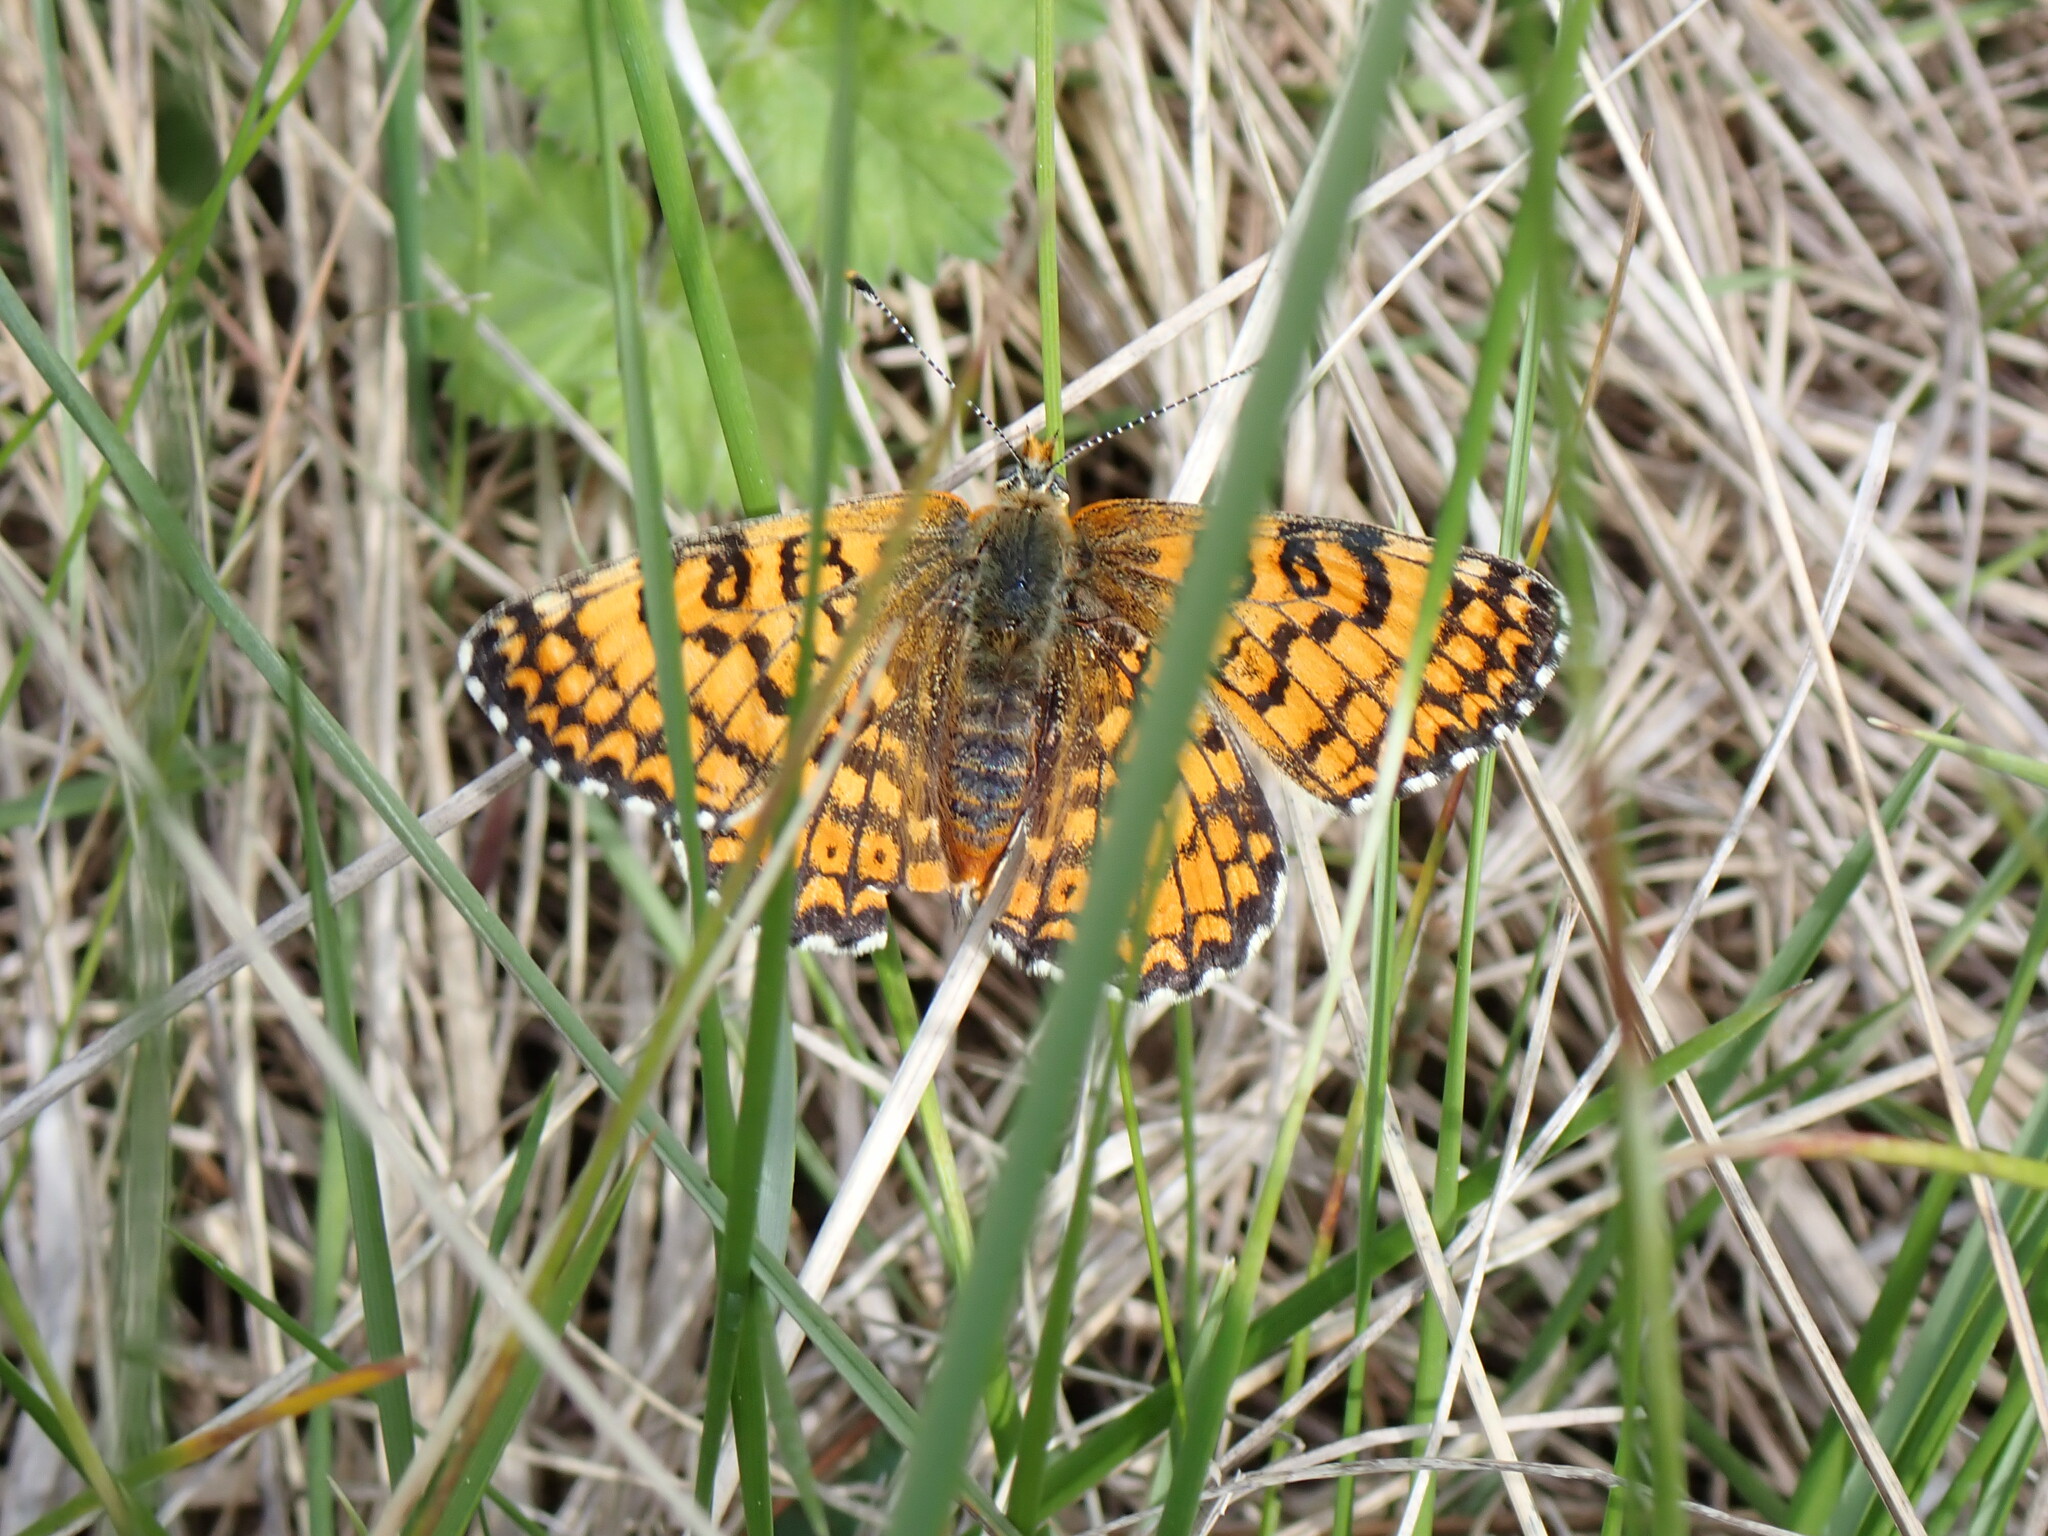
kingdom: Animalia
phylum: Arthropoda
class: Insecta
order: Lepidoptera
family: Nymphalidae
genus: Melitaea
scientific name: Melitaea cinxia
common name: Glanville fritillary
